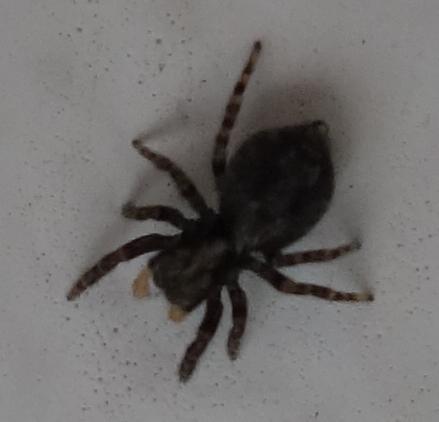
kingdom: Animalia
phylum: Arthropoda
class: Arachnida
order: Araneae
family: Salticidae
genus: Pseudeuophrys
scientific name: Pseudeuophrys lanigera
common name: Jumping spider
